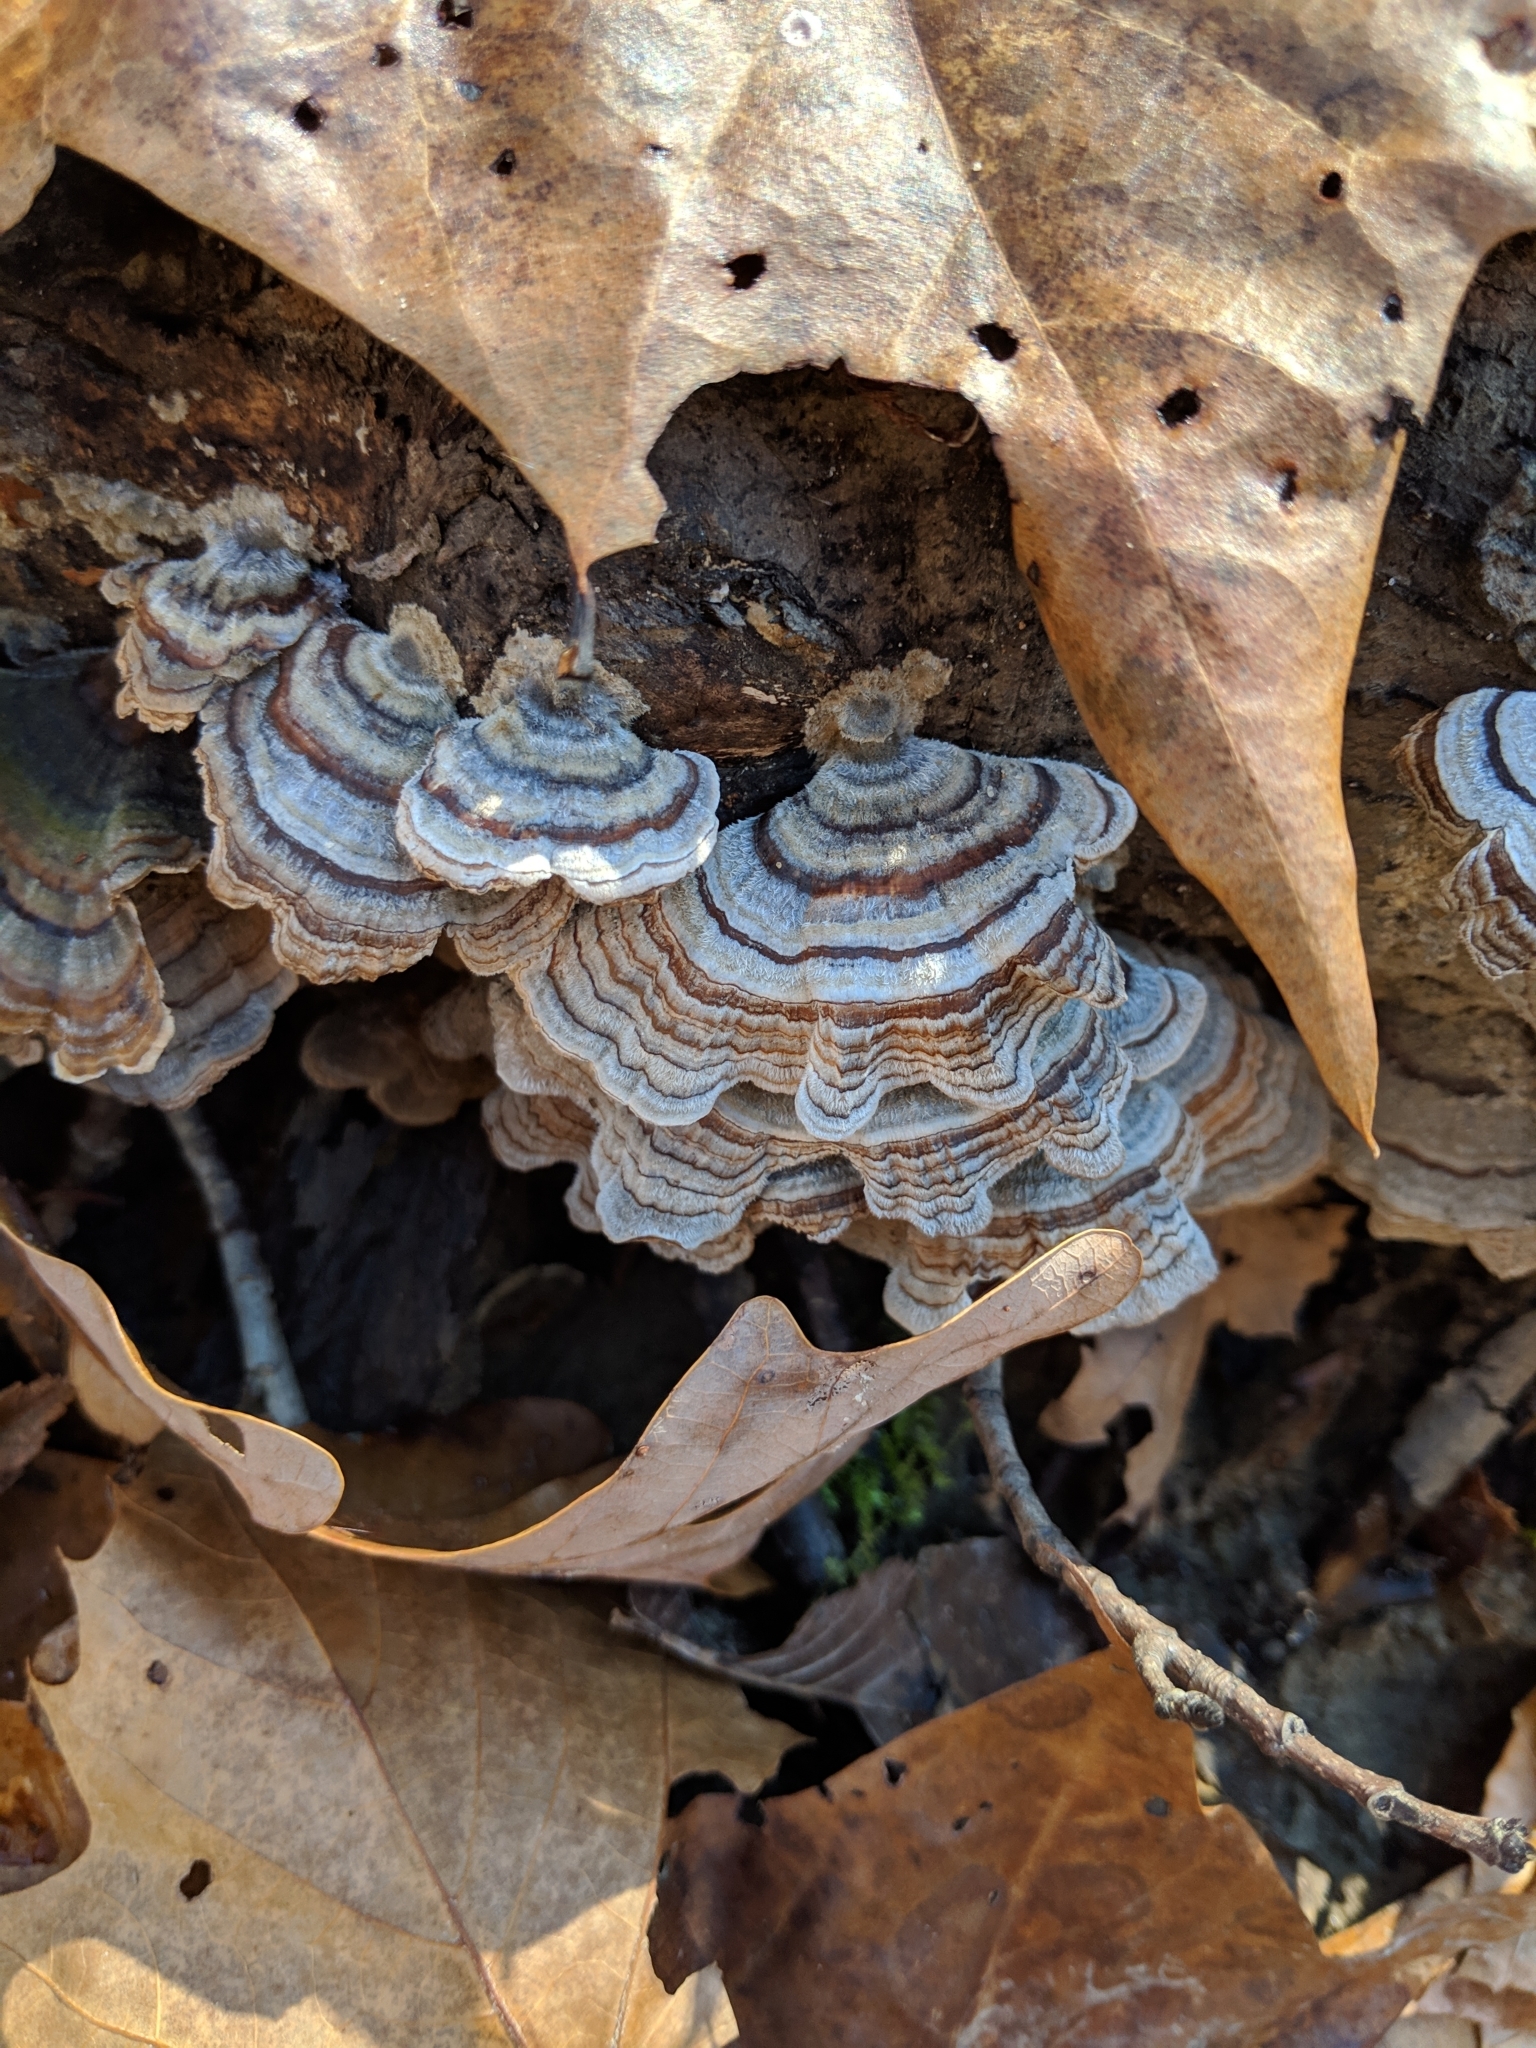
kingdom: Fungi
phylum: Basidiomycota
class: Agaricomycetes
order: Polyporales
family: Polyporaceae
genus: Trametes
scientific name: Trametes versicolor
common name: Turkeytail
